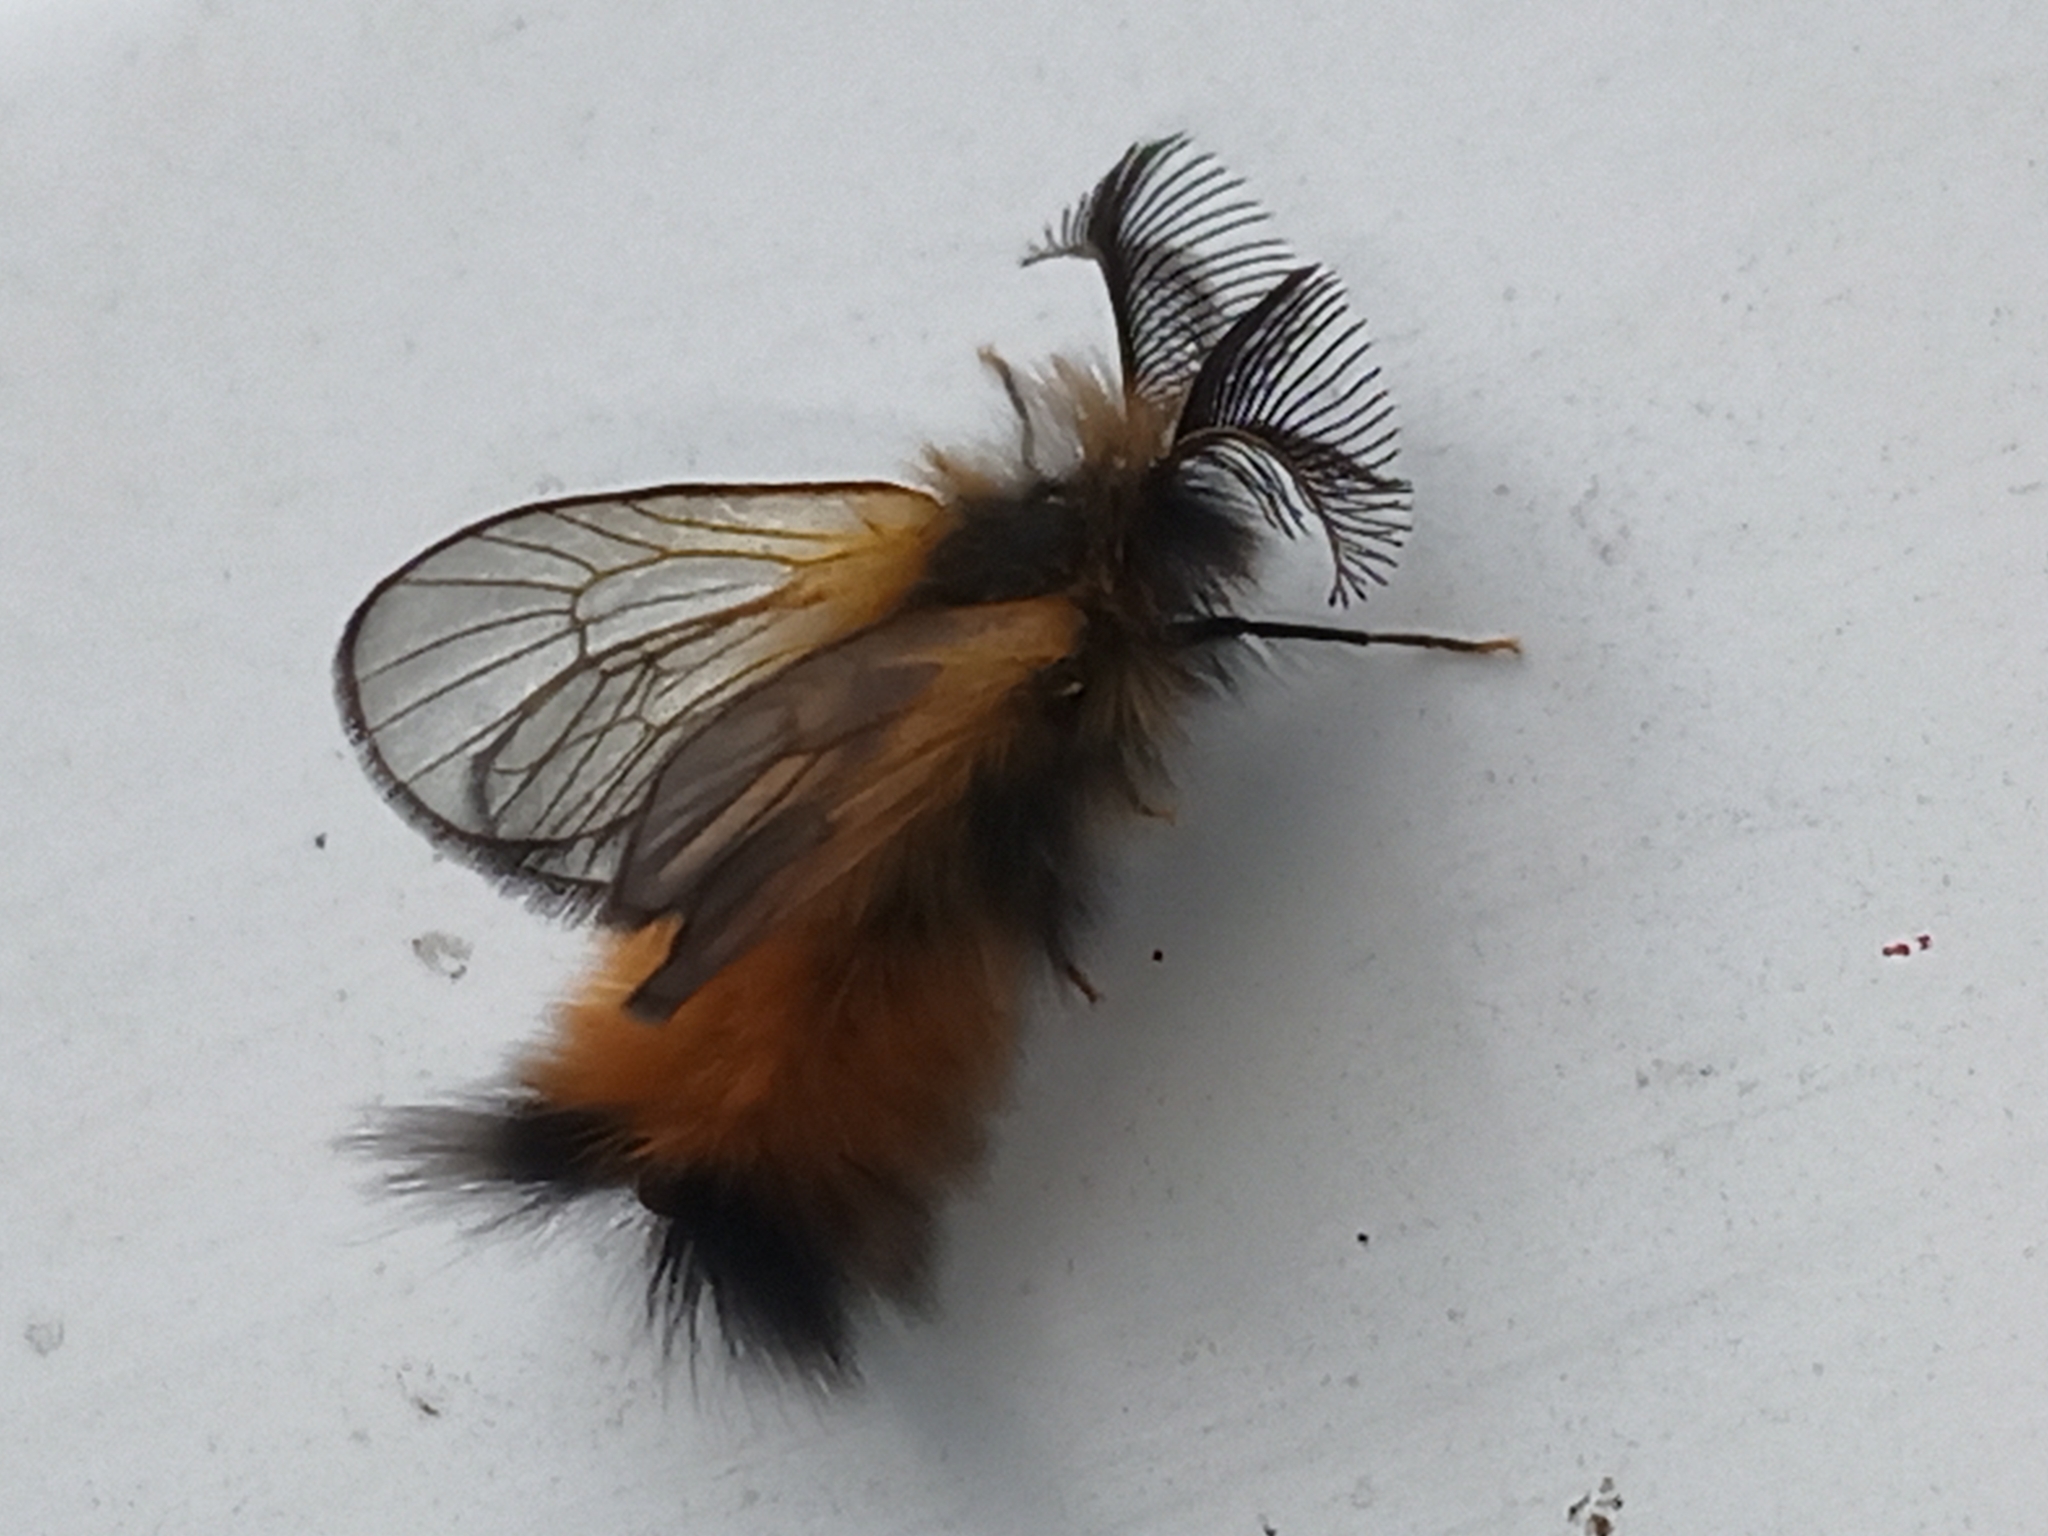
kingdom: Animalia
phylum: Arthropoda
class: Insecta
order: Lepidoptera
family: Psychidae
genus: Ptilocephala
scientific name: Ptilocephala monteiroi
